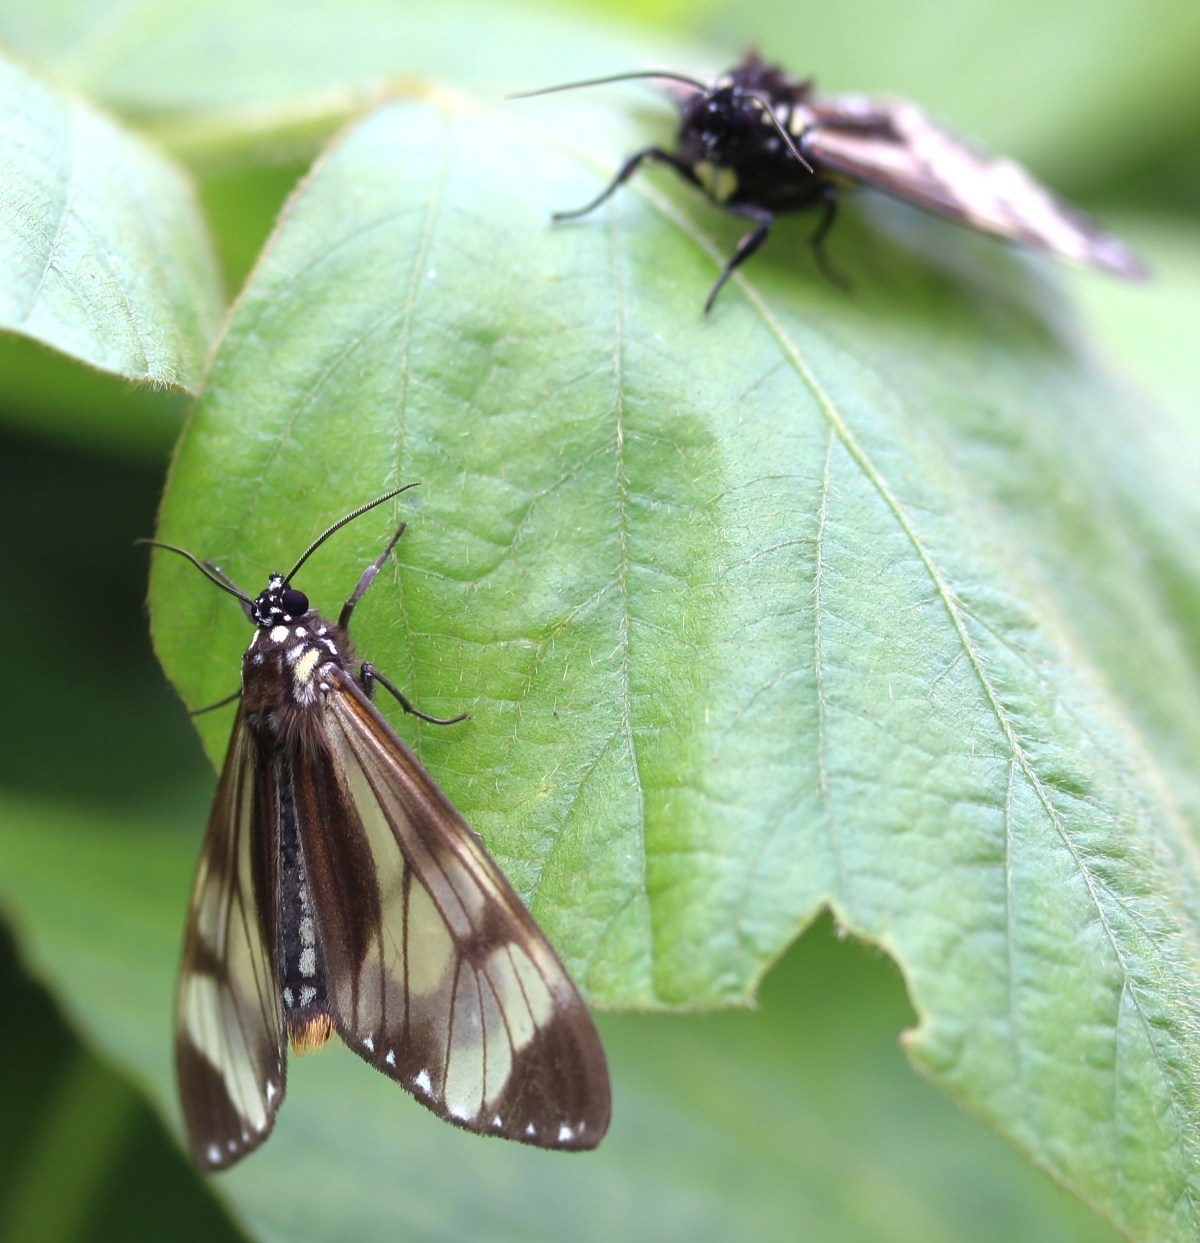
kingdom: Animalia
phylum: Arthropoda
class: Insecta
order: Lepidoptera
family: Erebidae
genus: Dysschema
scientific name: Dysschema
